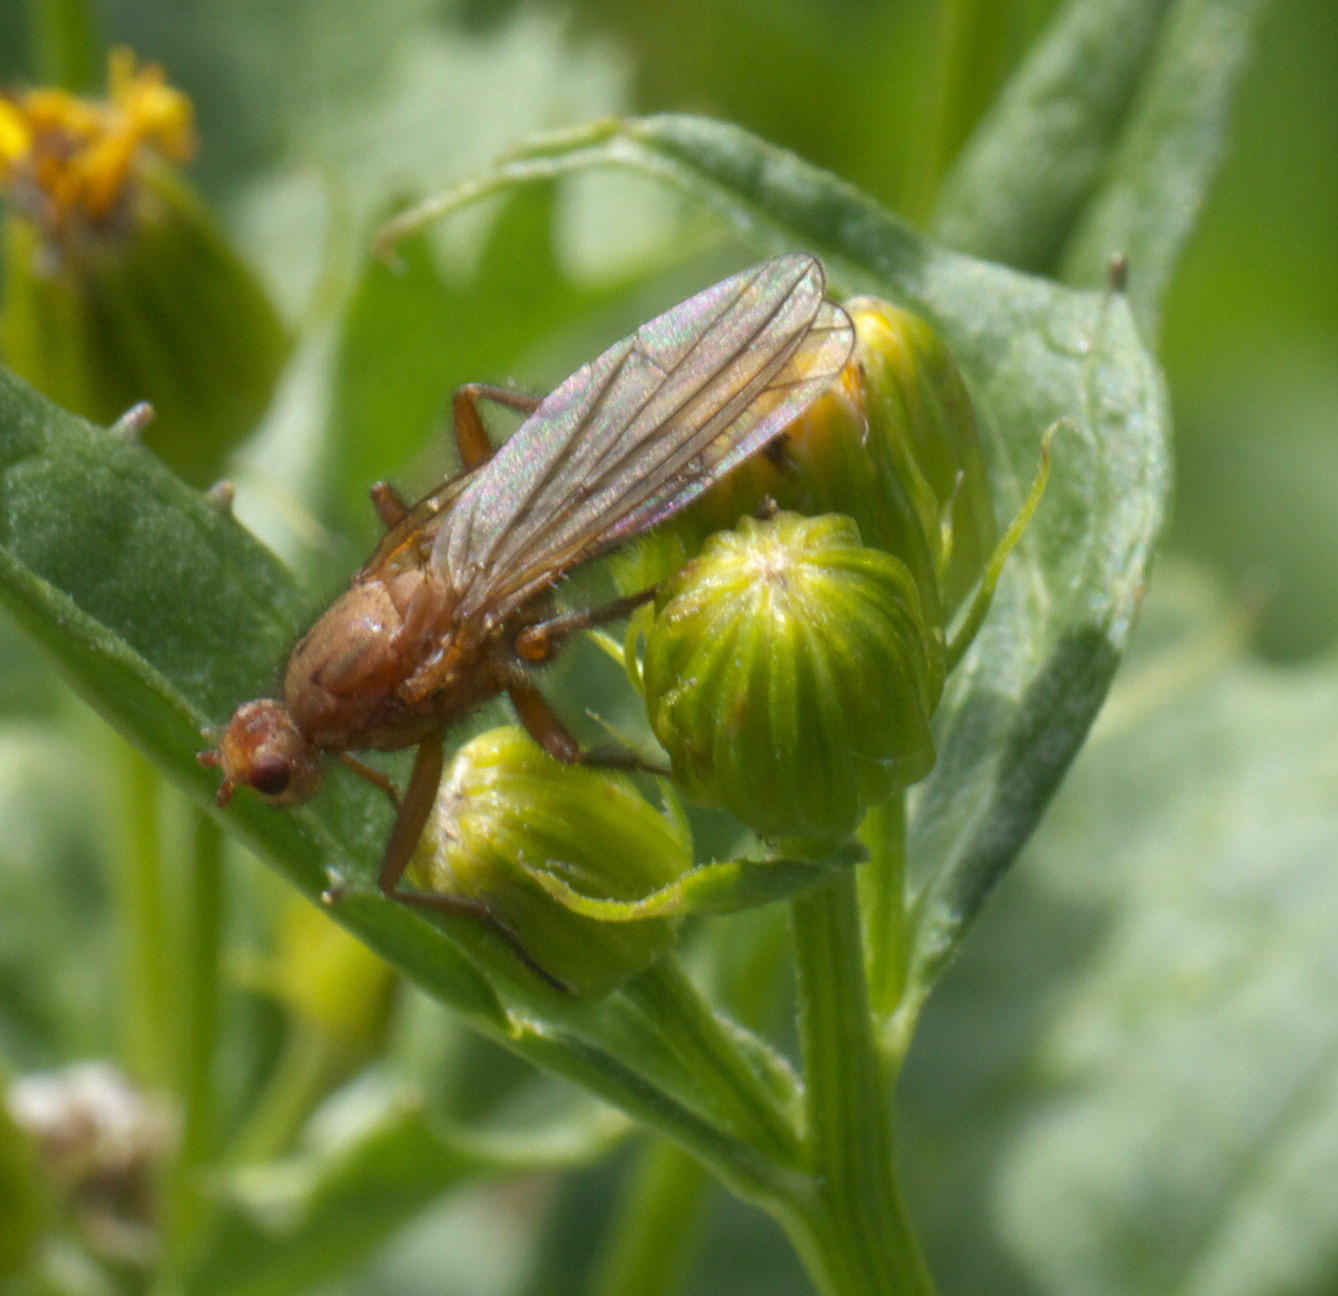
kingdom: Animalia
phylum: Arthropoda
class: Insecta
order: Diptera
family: Heleomyzidae
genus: Amoebaleria
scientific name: Amoebaleria perplexa
